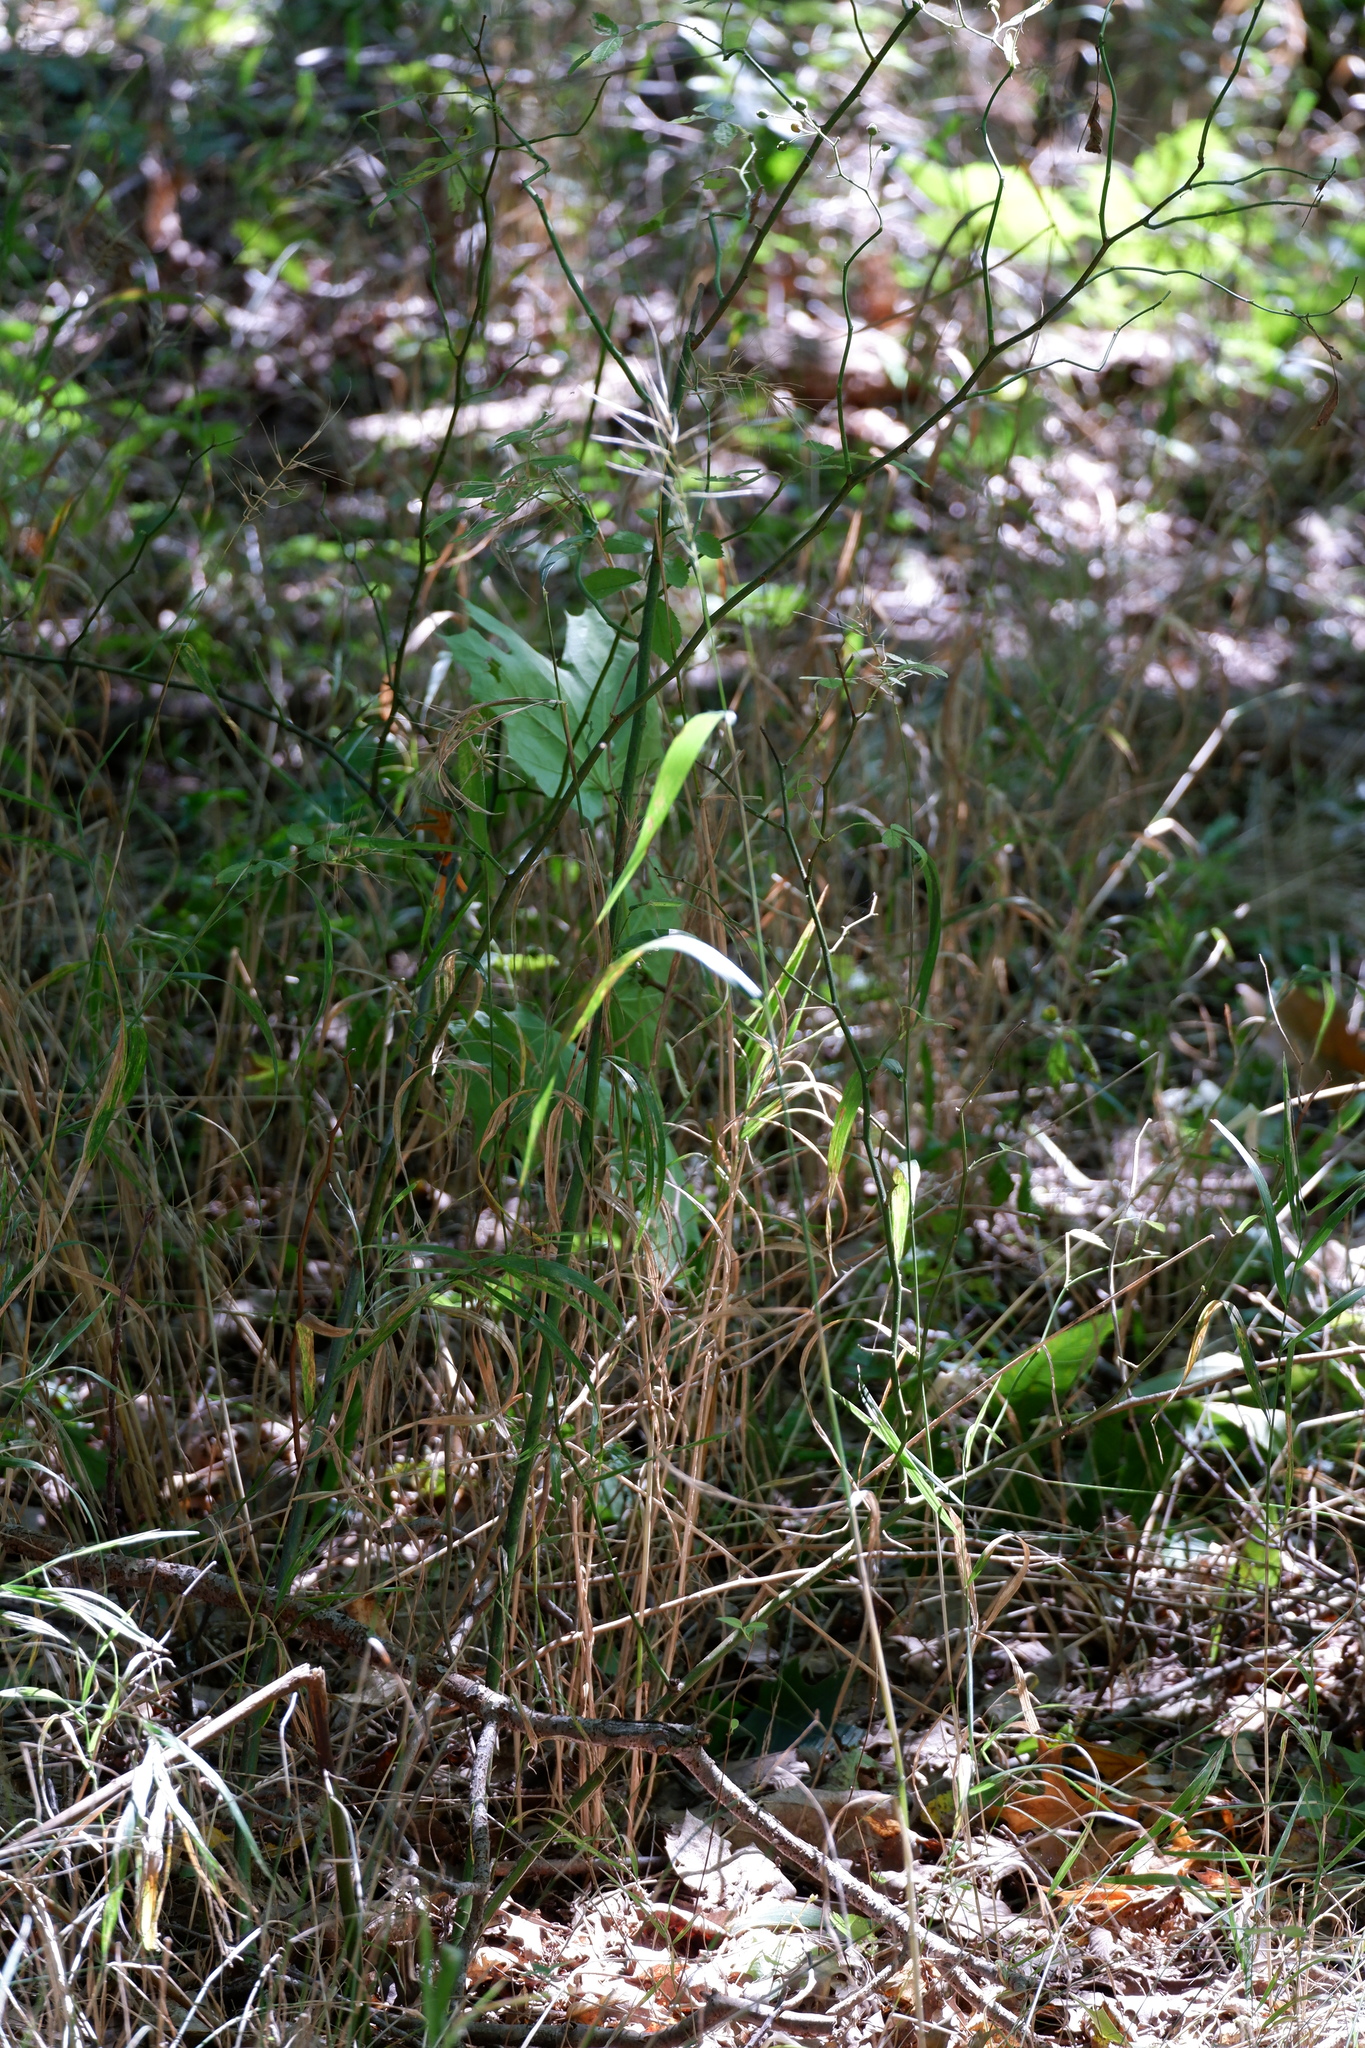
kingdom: Plantae
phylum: Tracheophyta
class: Liliopsida
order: Poales
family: Poaceae
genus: Elymus
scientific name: Elymus hystrix
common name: Bottlebrush grass
